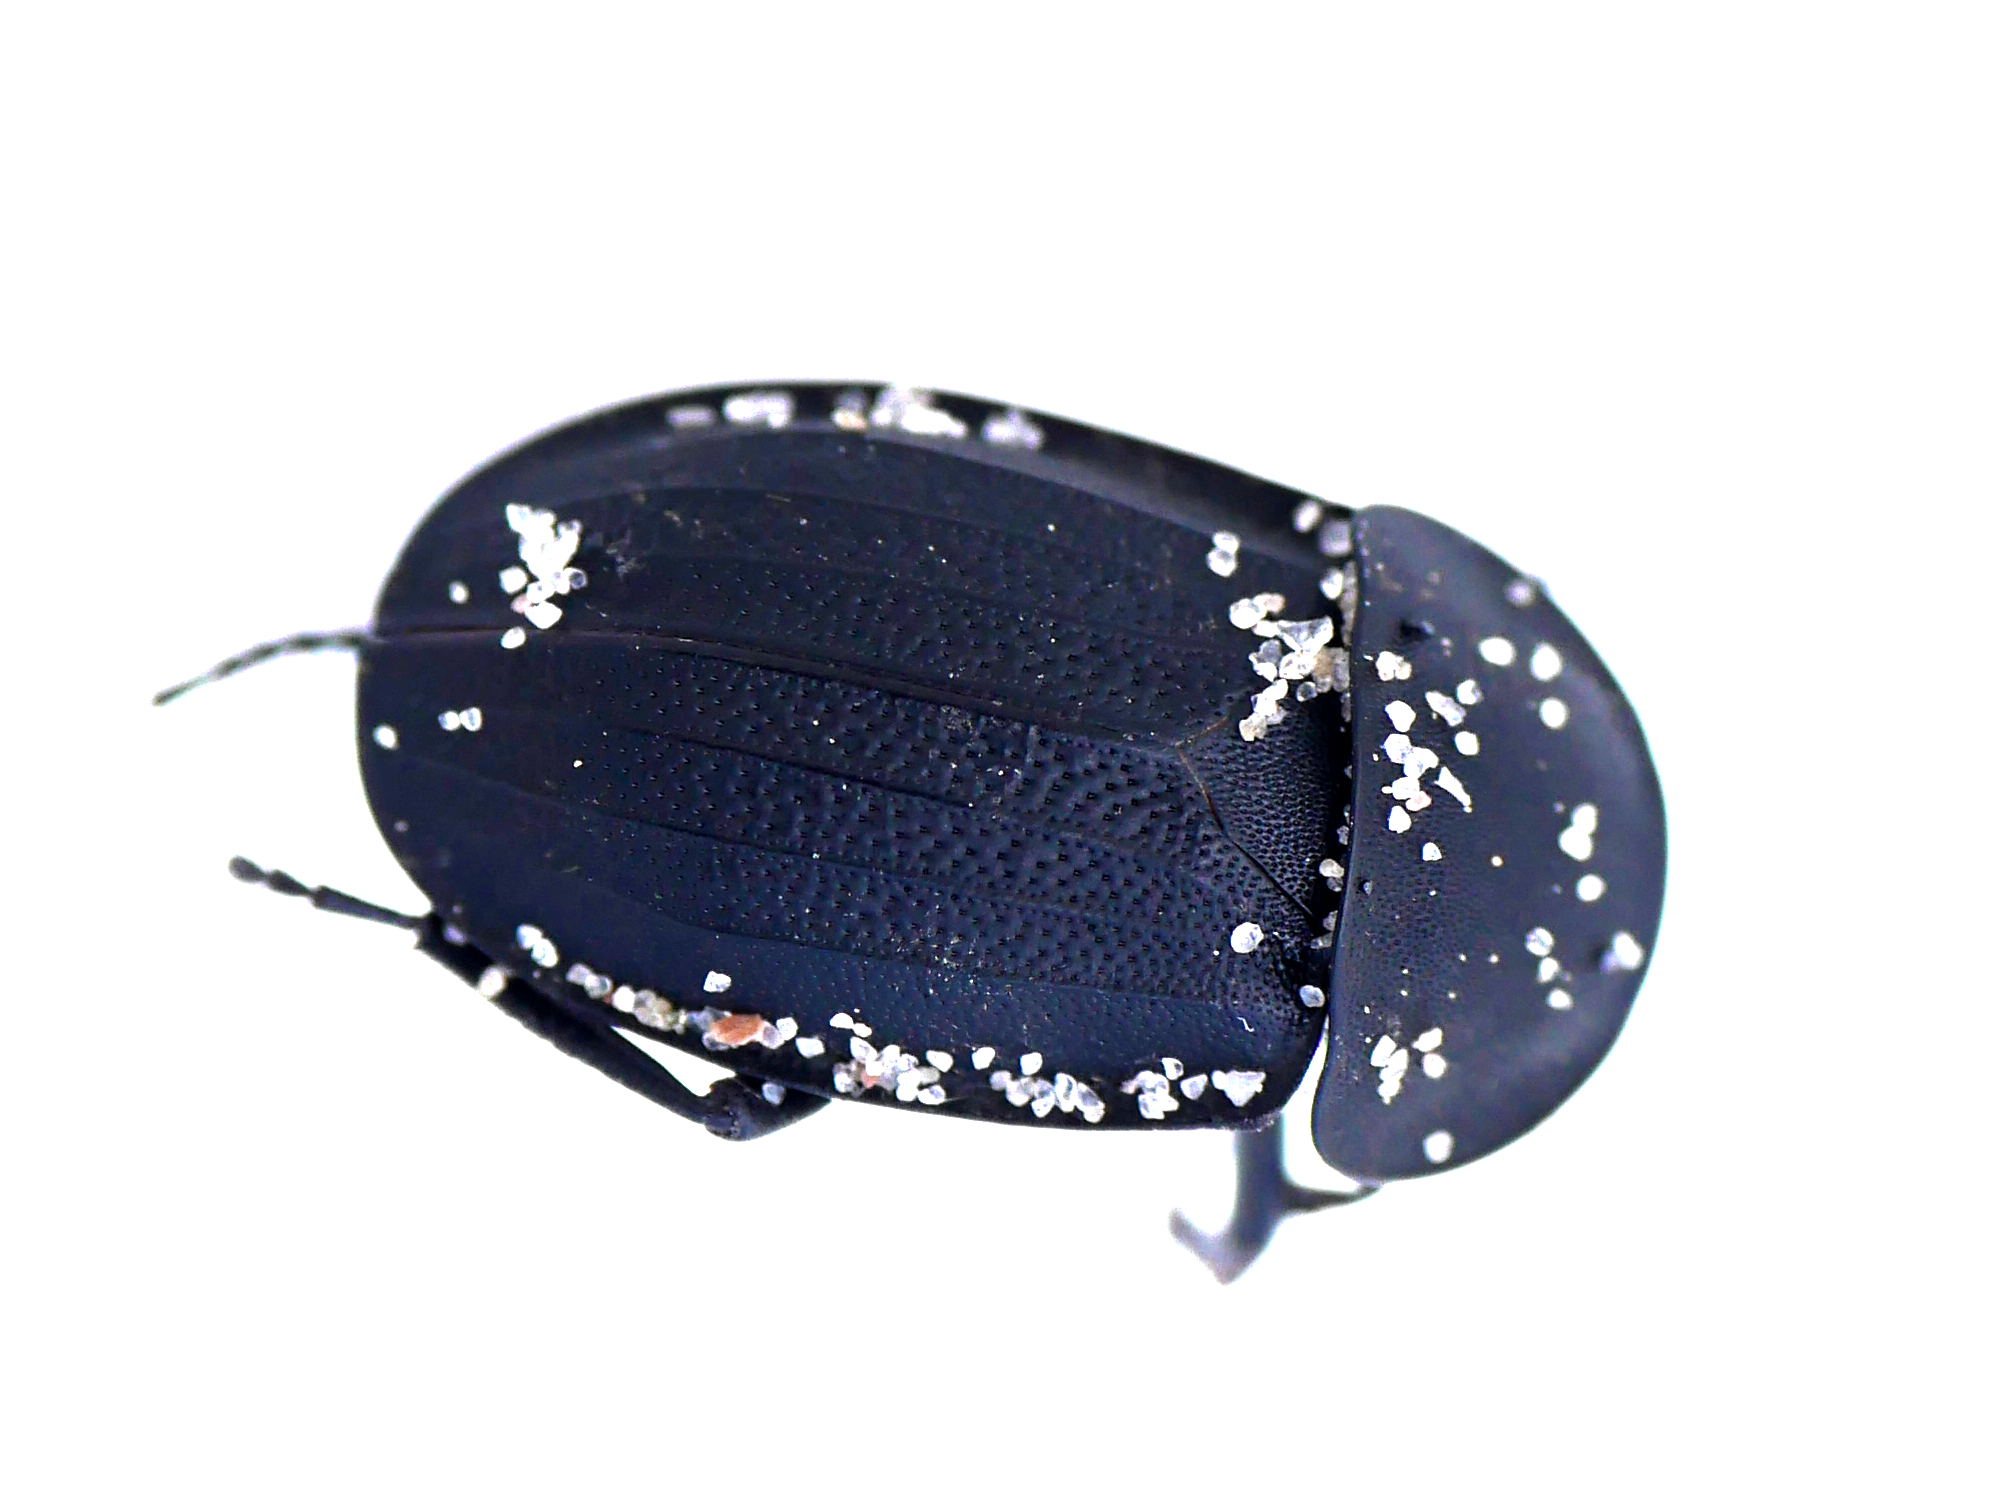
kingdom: Animalia
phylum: Arthropoda
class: Insecta
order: Coleoptera
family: Staphylinidae
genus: Silpha
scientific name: Silpha obscura
